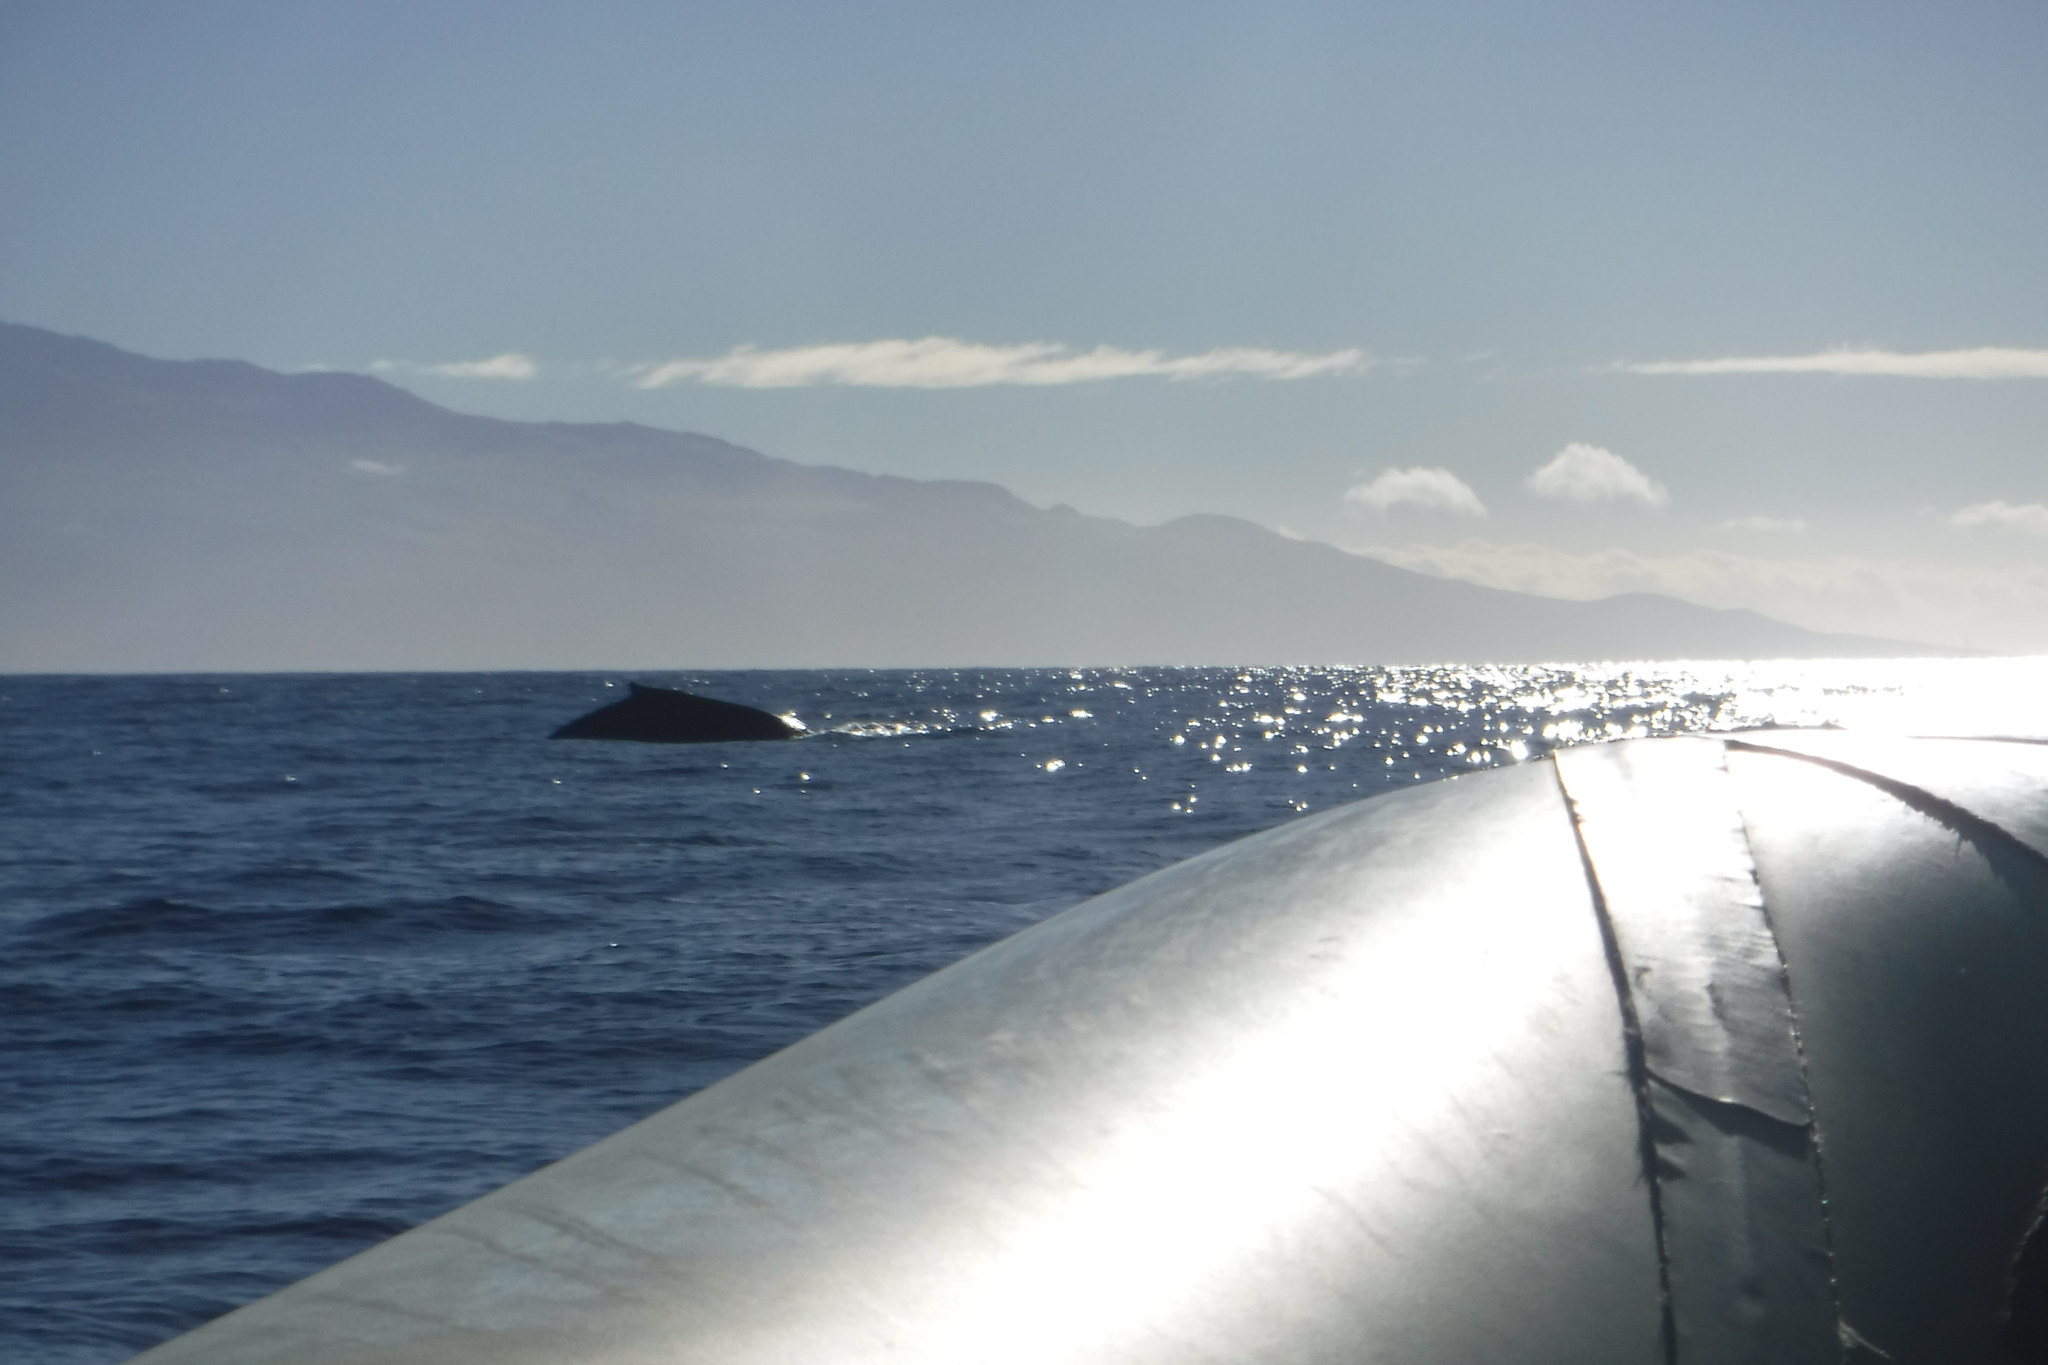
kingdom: Animalia
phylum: Chordata
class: Mammalia
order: Cetacea
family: Balaenopteridae
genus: Megaptera
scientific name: Megaptera novaeangliae
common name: Humpback whale
